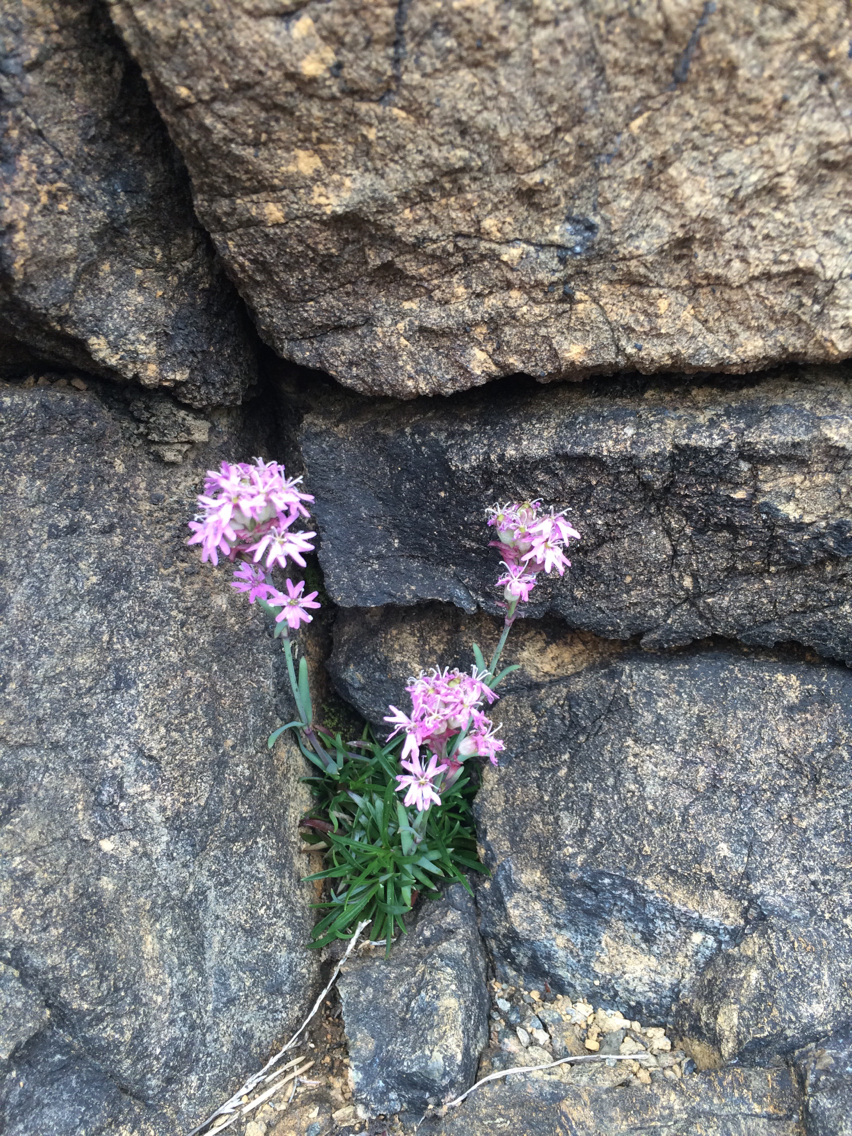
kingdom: Plantae
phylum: Tracheophyta
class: Magnoliopsida
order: Caryophyllales
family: Caryophyllaceae
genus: Viscaria
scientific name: Viscaria alpina
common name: Alpine campion
